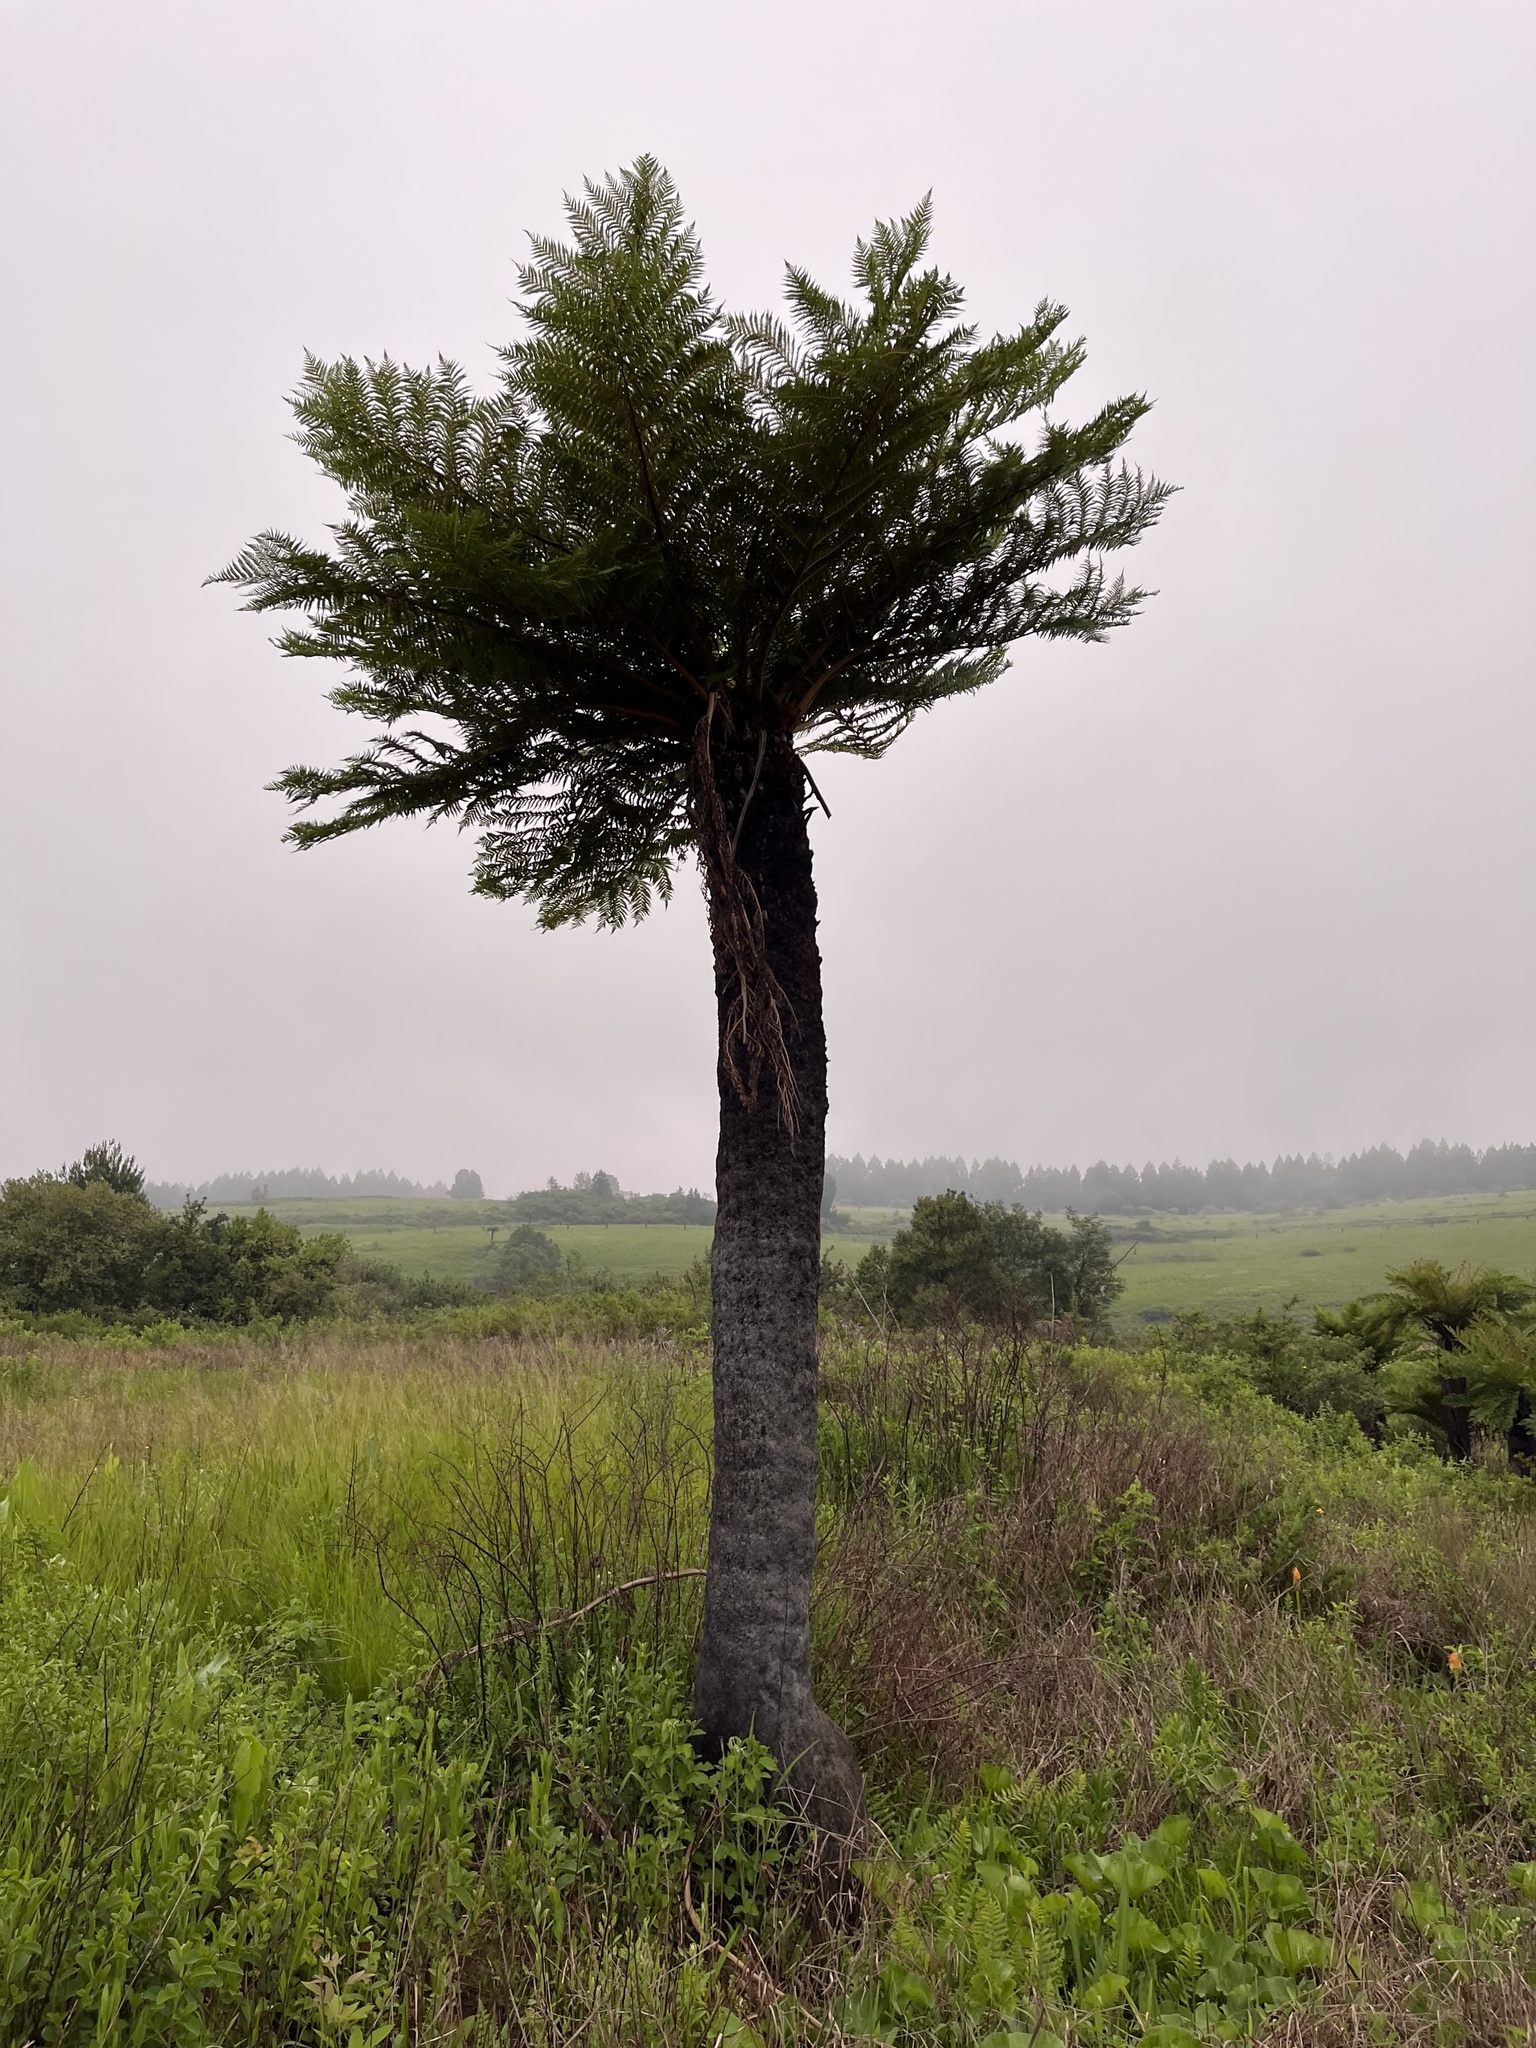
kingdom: Plantae
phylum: Tracheophyta
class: Polypodiopsida
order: Cyatheales
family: Cyatheaceae
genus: Alsophila
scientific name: Alsophila dregei
